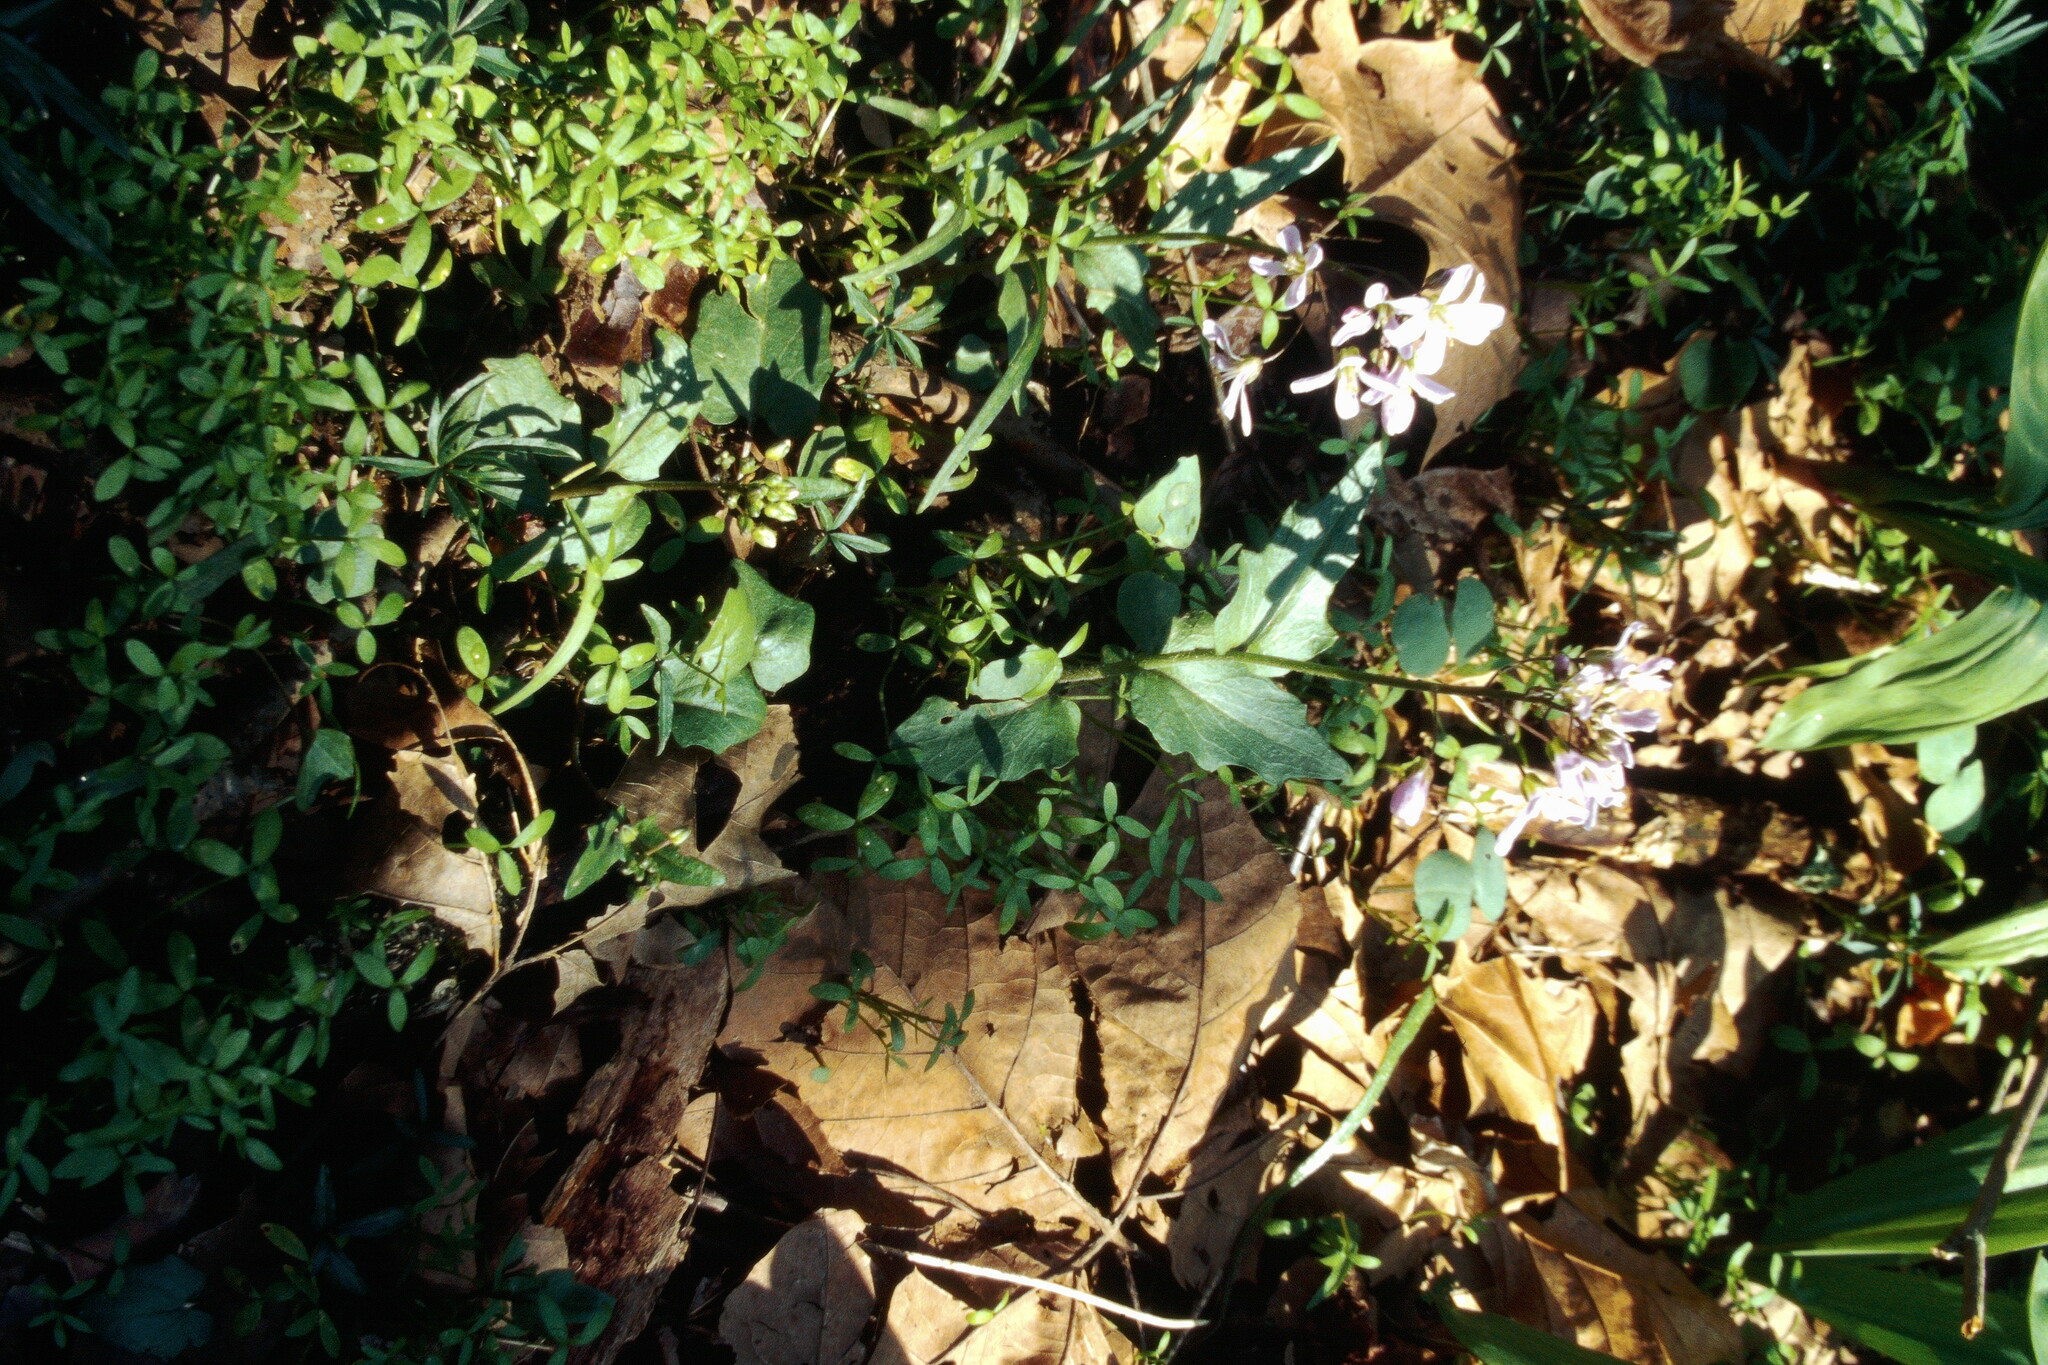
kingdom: Plantae
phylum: Tracheophyta
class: Magnoliopsida
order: Brassicales
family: Brassicaceae
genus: Cardamine
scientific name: Cardamine douglassii
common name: Purple cress
